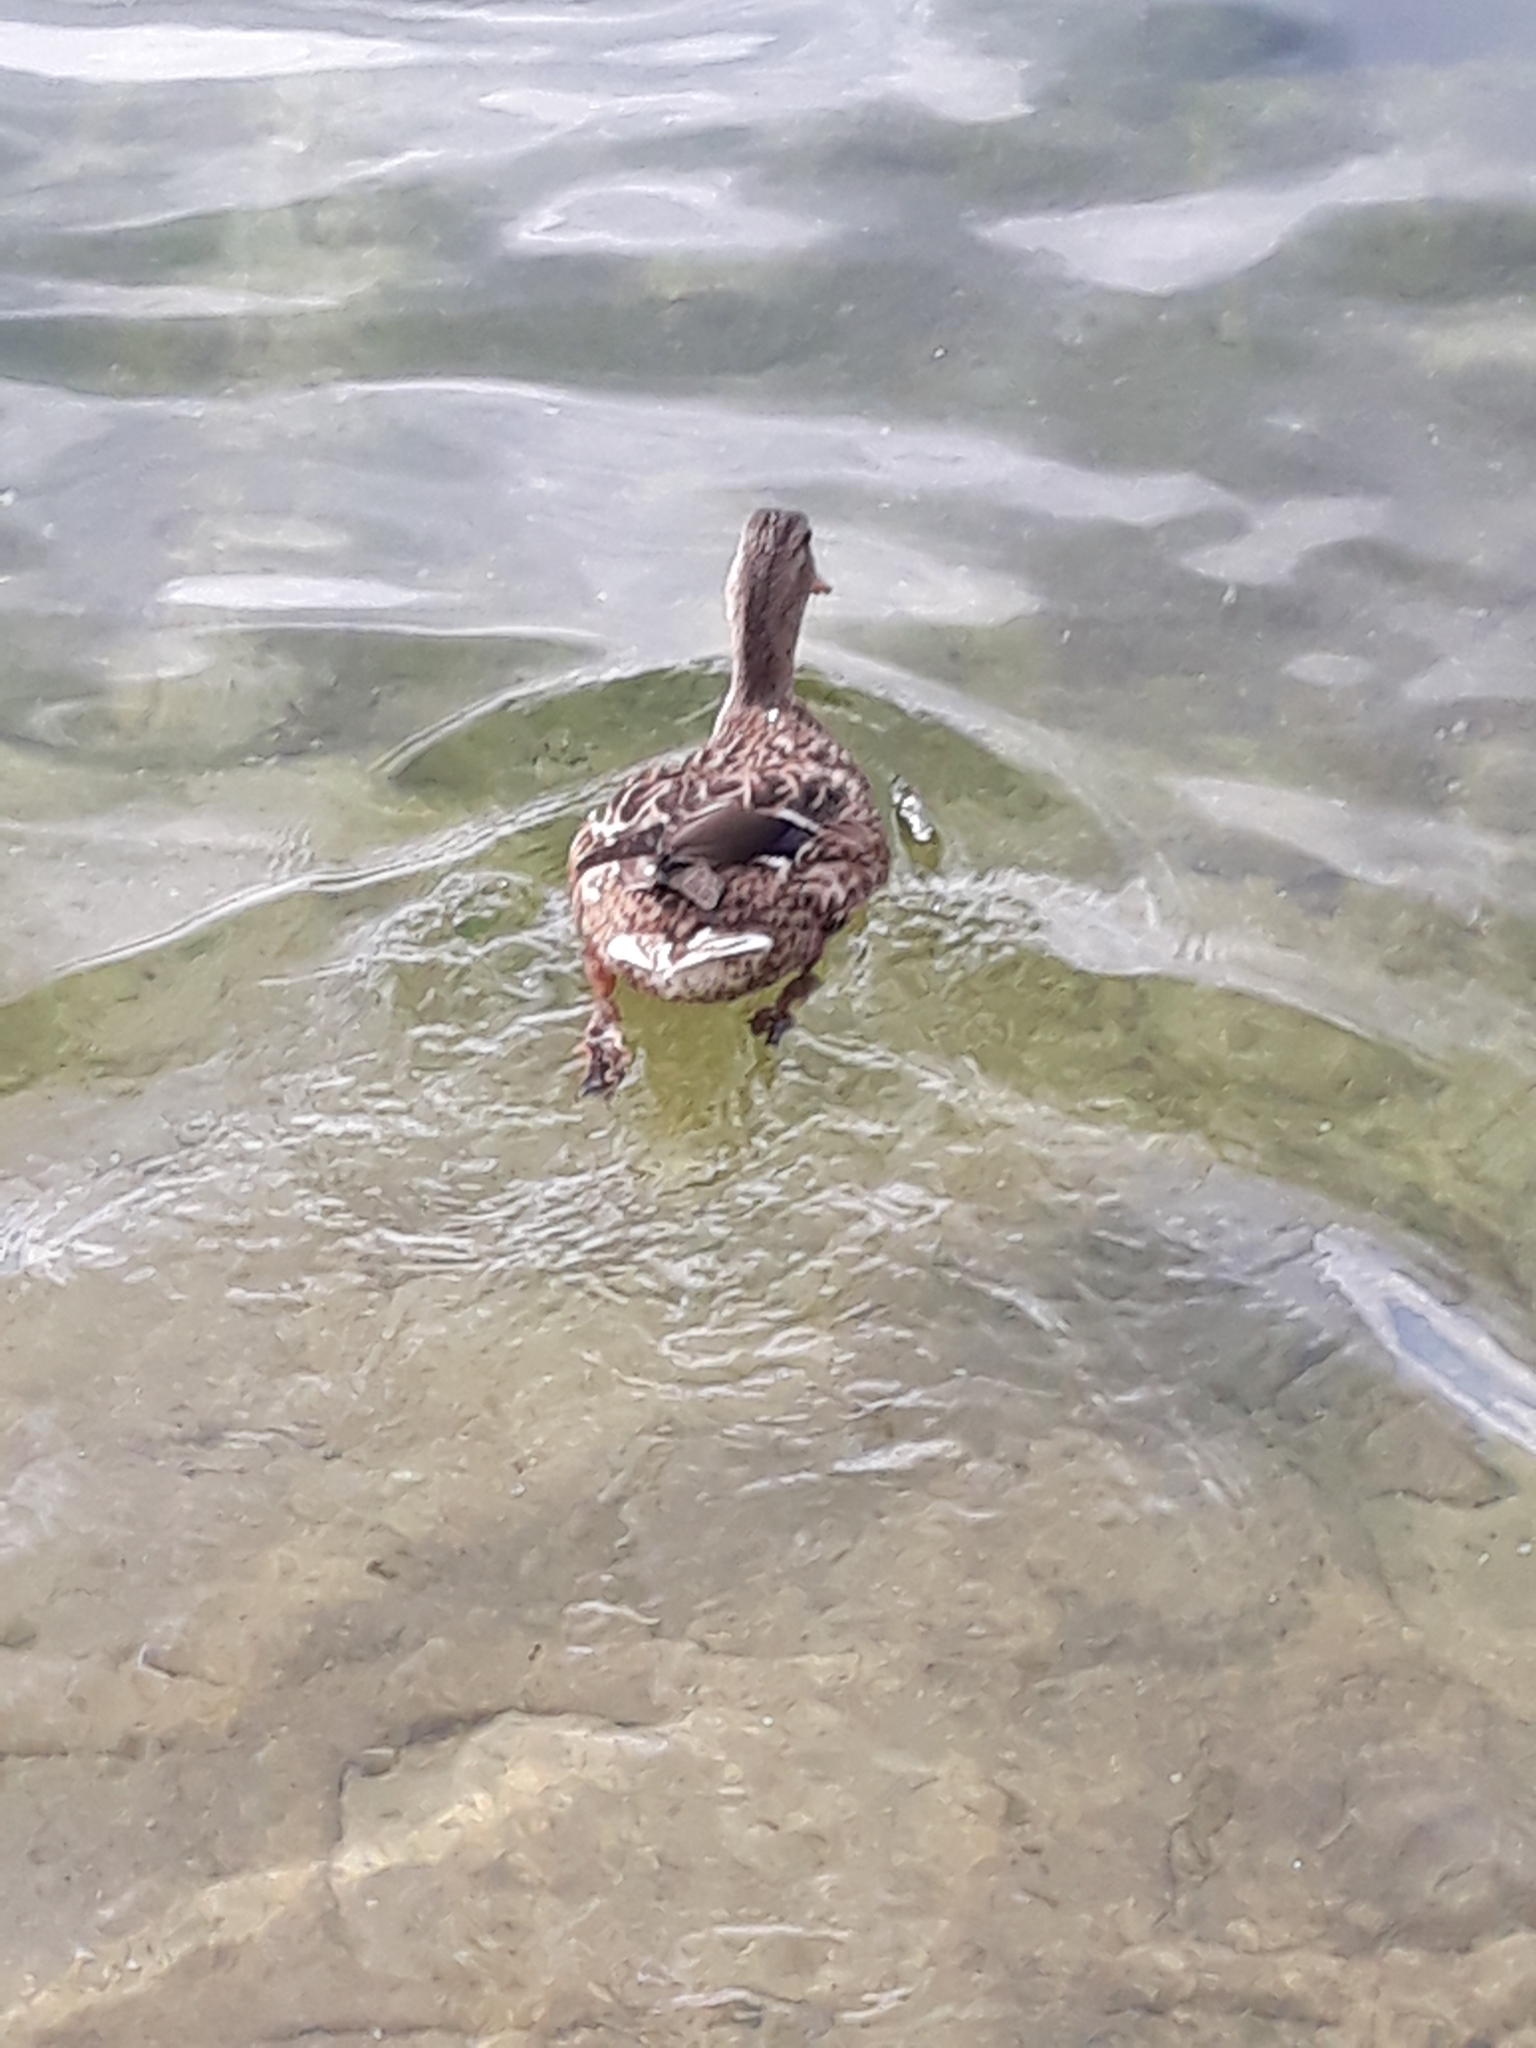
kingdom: Animalia
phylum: Chordata
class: Aves
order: Anseriformes
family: Anatidae
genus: Anas
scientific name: Anas platyrhynchos
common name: Mallard
